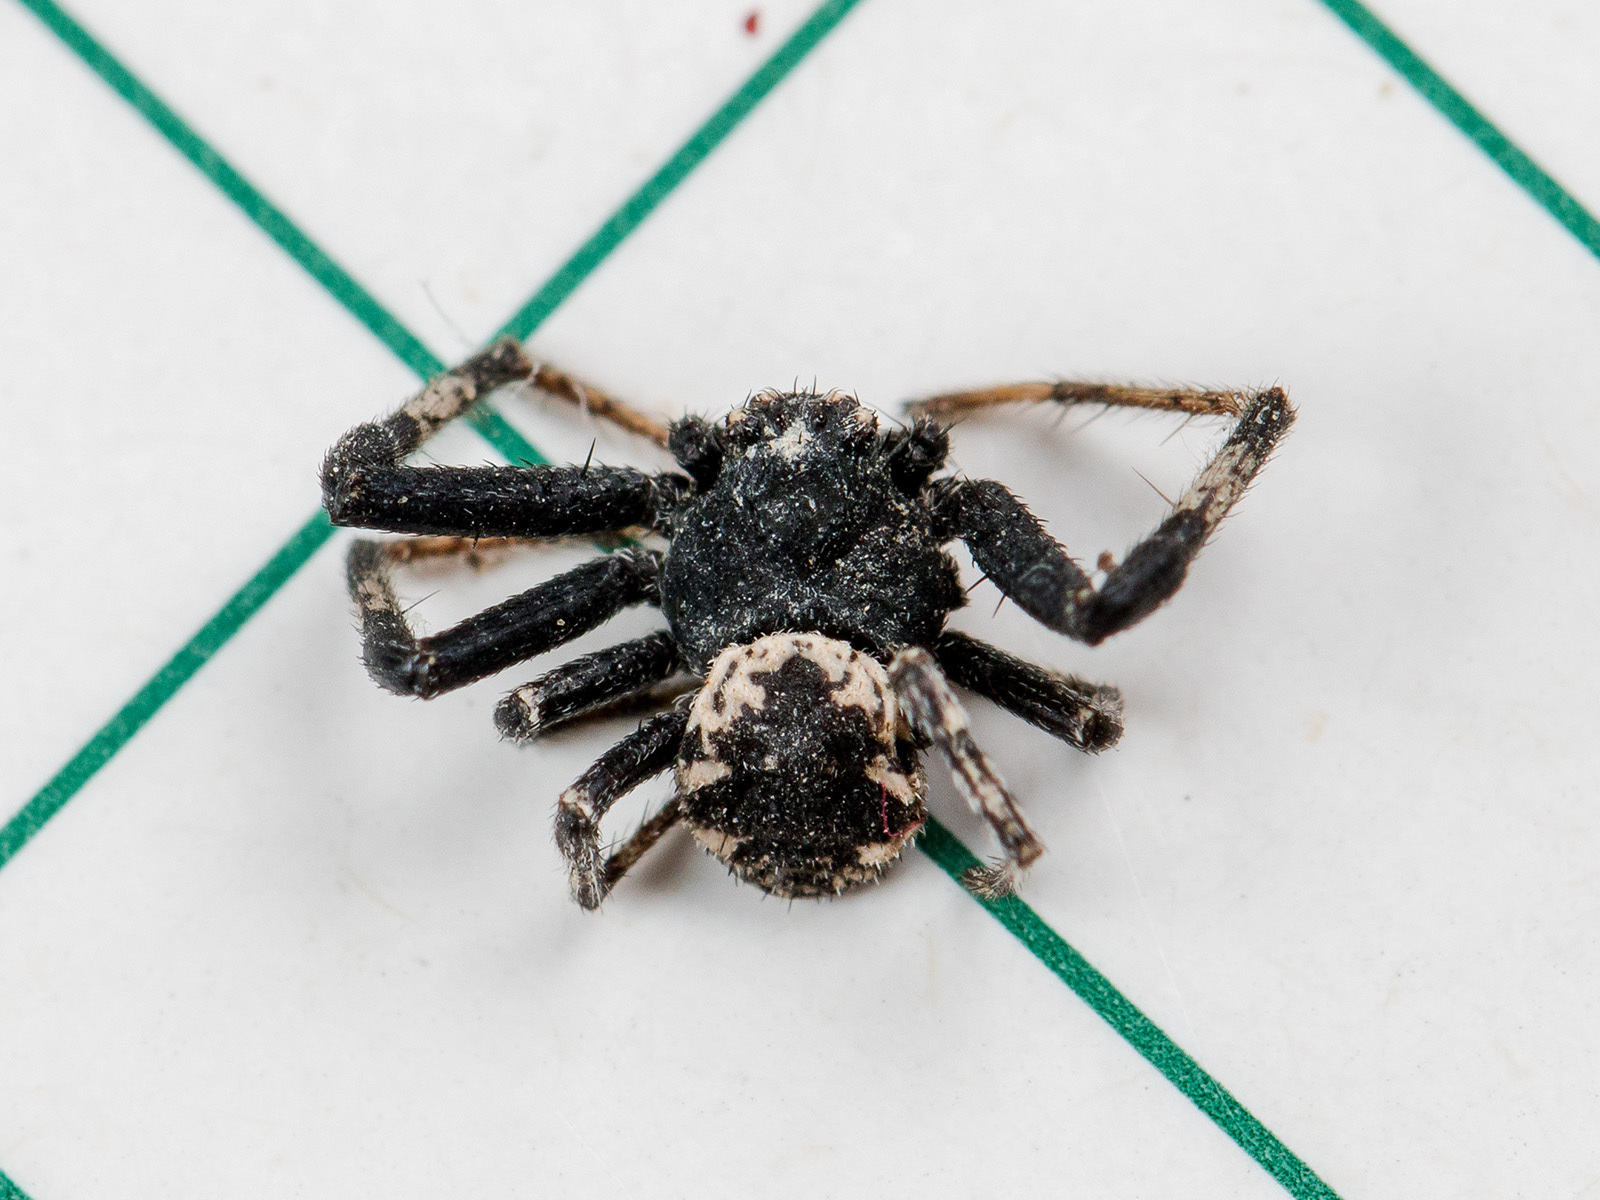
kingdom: Animalia
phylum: Arthropoda
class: Arachnida
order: Araneae
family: Thomisidae
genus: Ozyptila
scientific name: Ozyptila tuberosa
